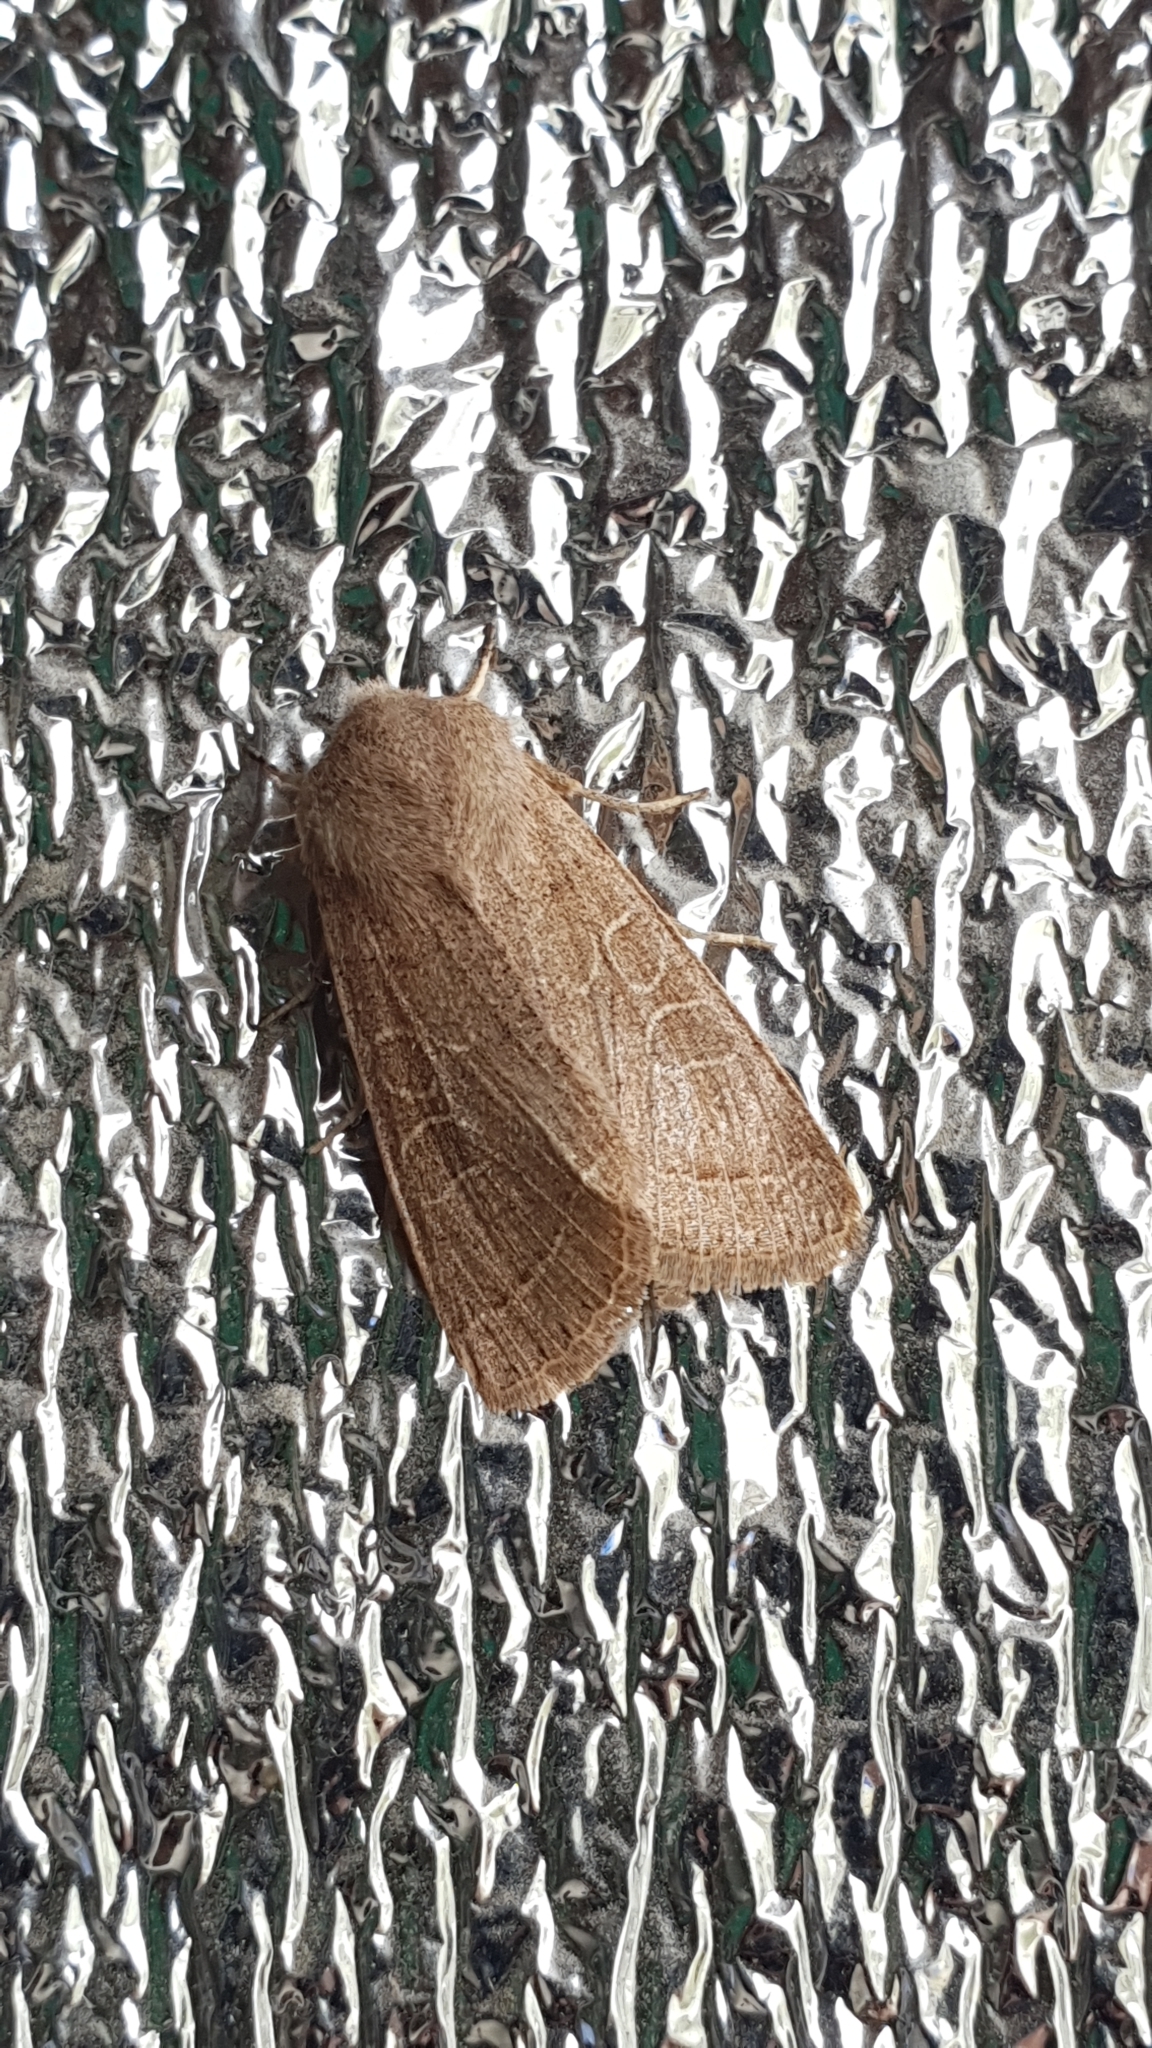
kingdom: Animalia
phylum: Arthropoda
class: Insecta
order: Lepidoptera
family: Noctuidae
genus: Orthosia
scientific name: Orthosia cerasi
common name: Common quaker
